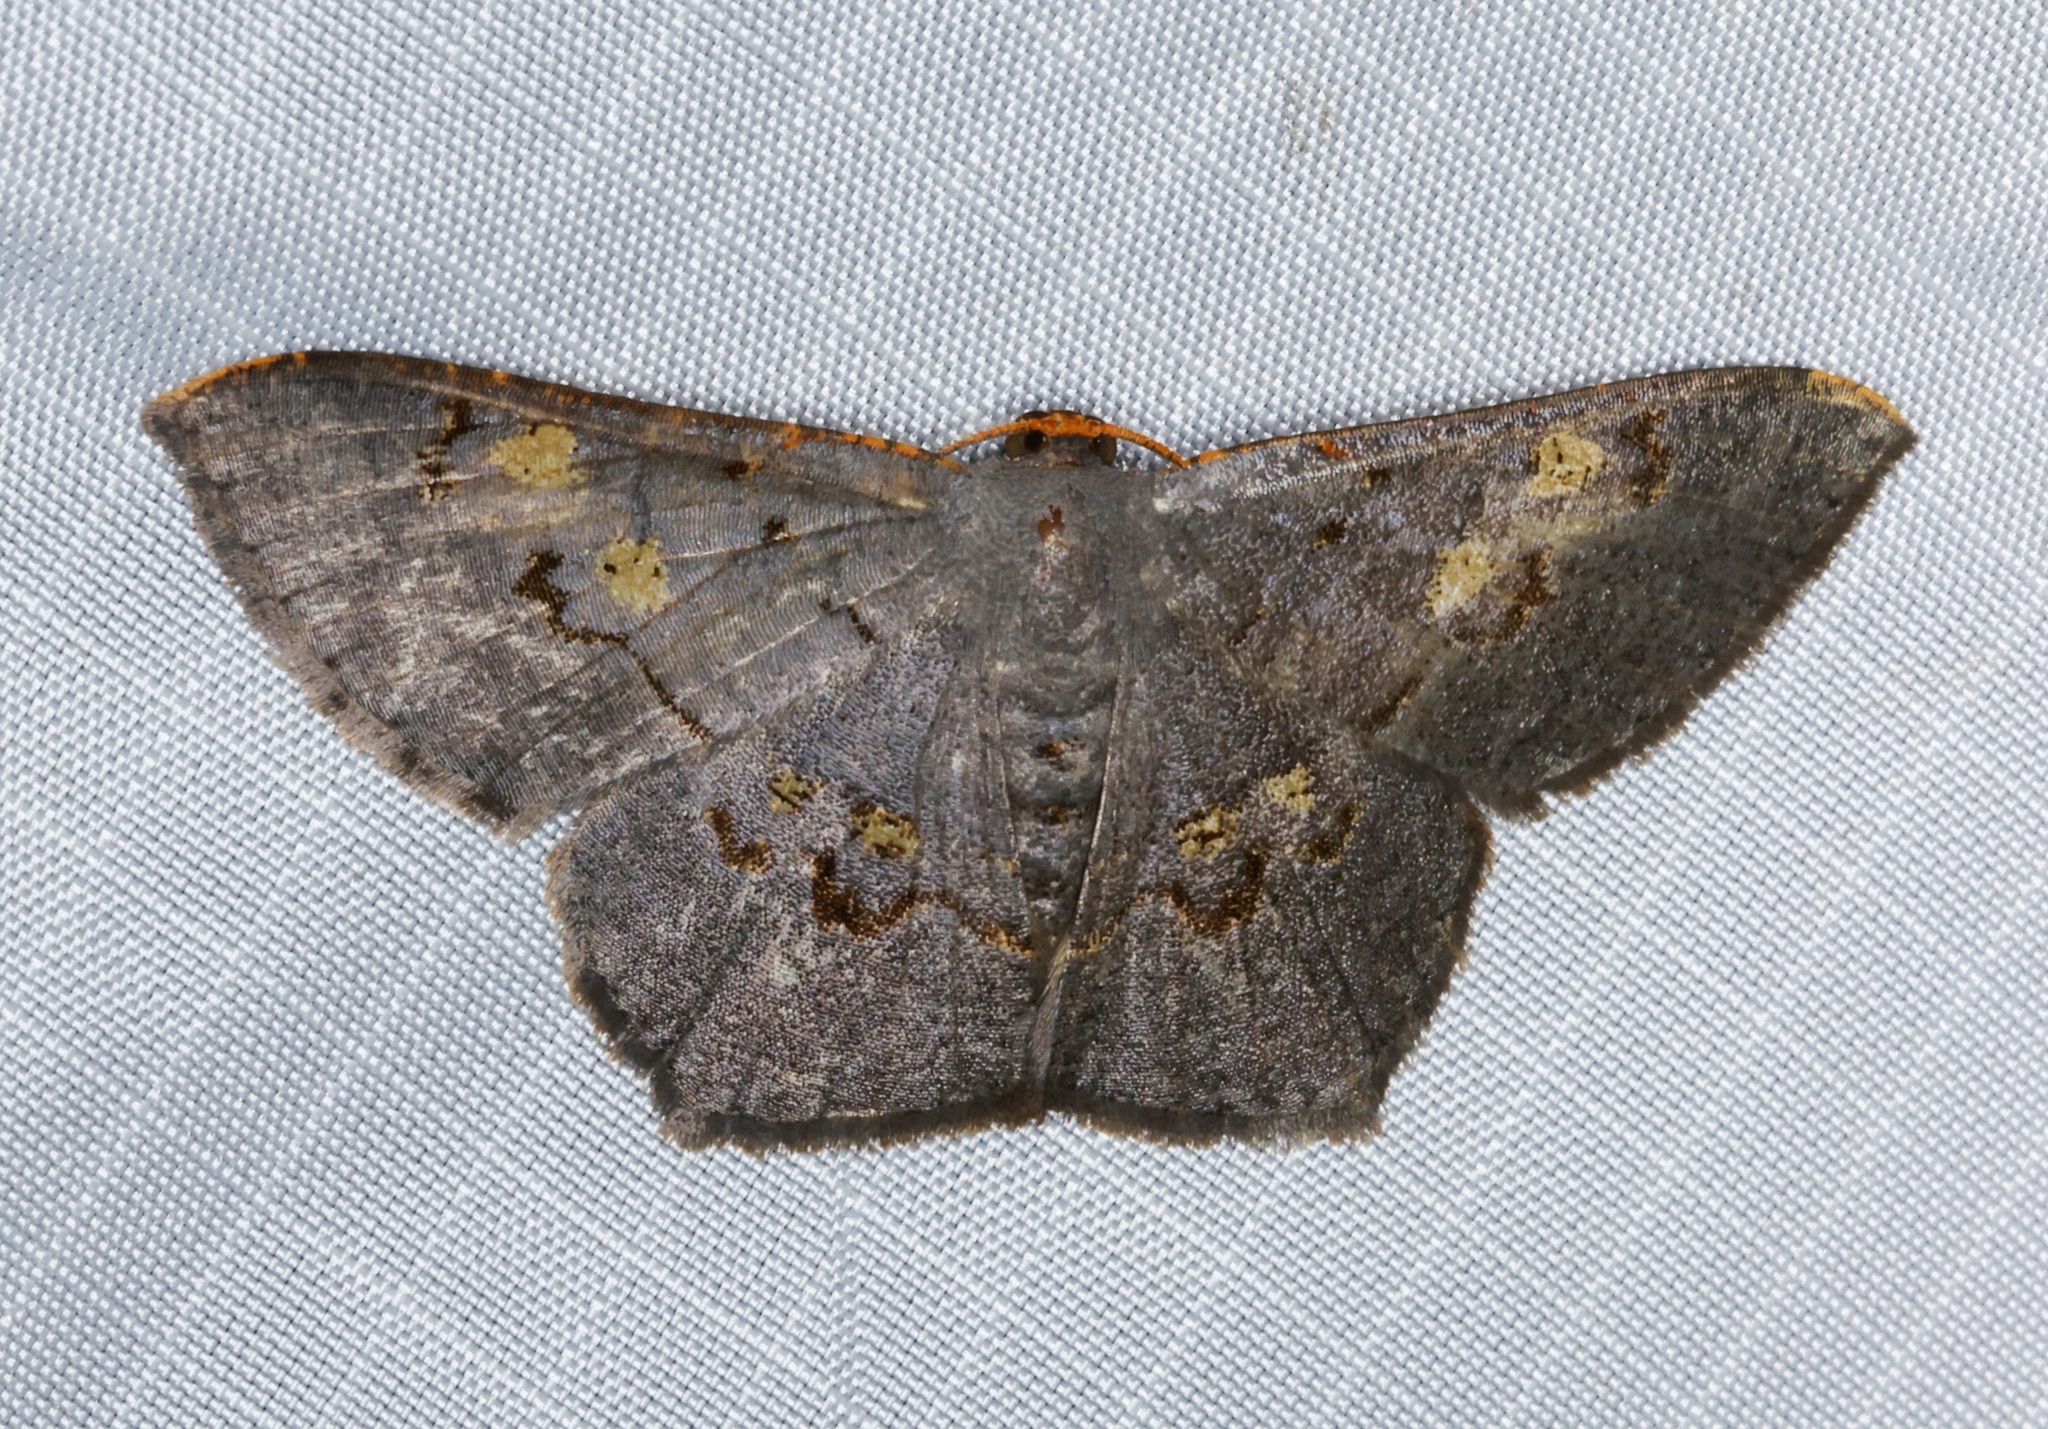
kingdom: Animalia
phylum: Arthropoda
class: Insecta
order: Lepidoptera
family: Geometridae
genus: Serratophyga
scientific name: Serratophyga subangulata
